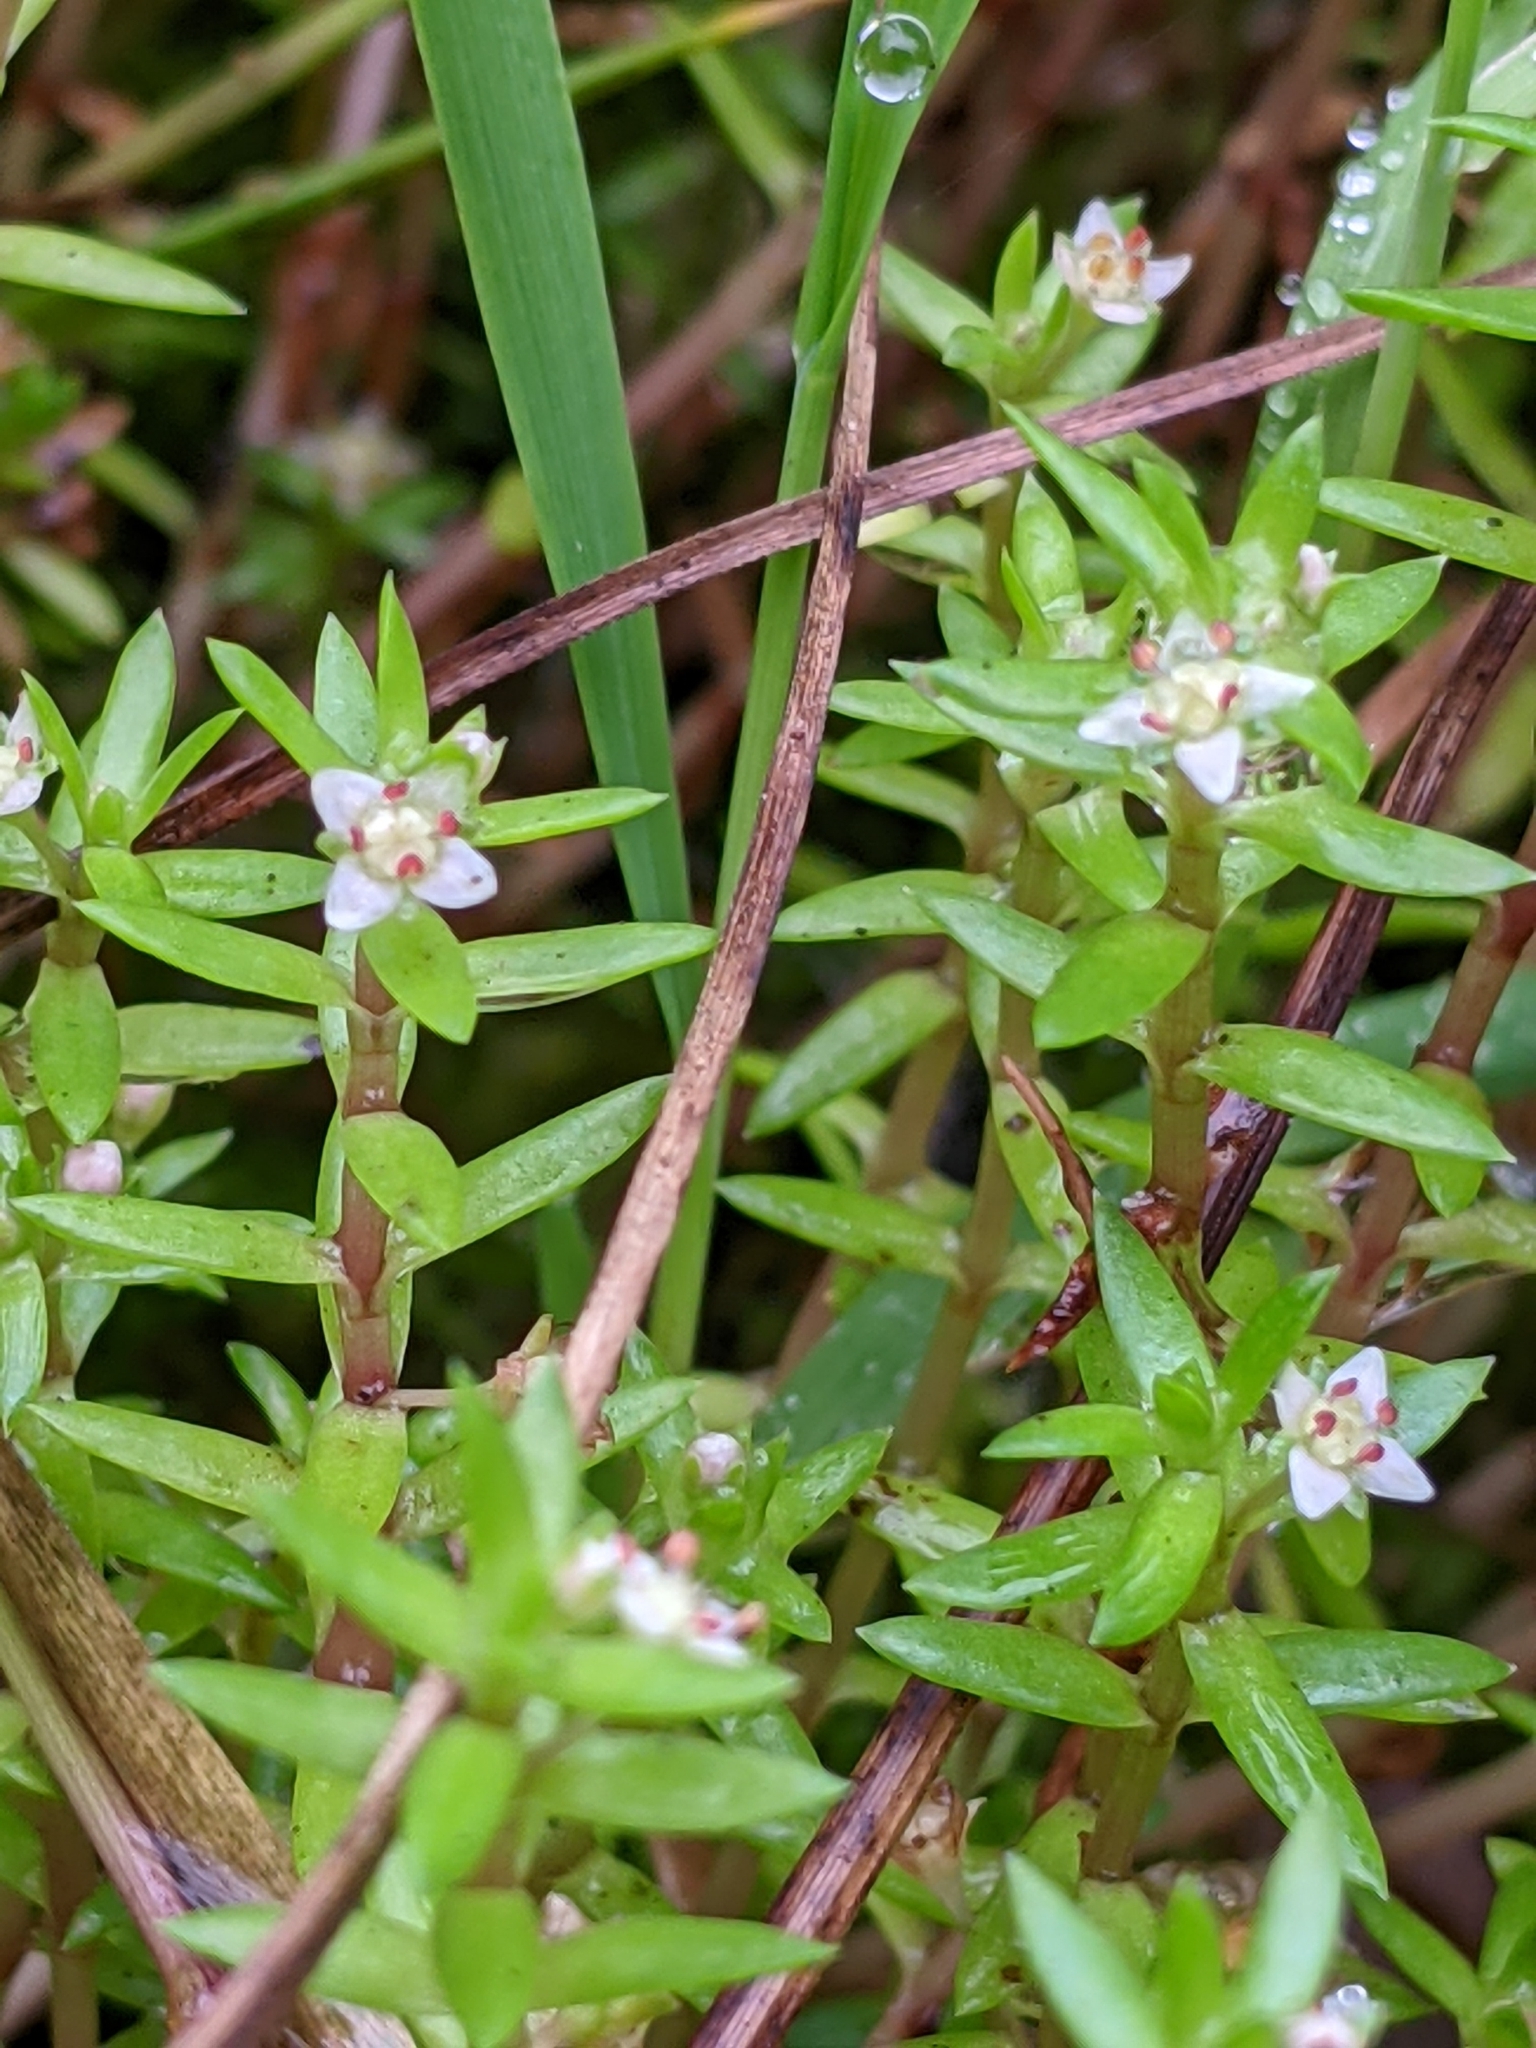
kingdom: Plantae
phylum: Tracheophyta
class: Magnoliopsida
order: Saxifragales
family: Crassulaceae
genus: Crassula
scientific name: Crassula helmsii
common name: New zealand pigmyweed
